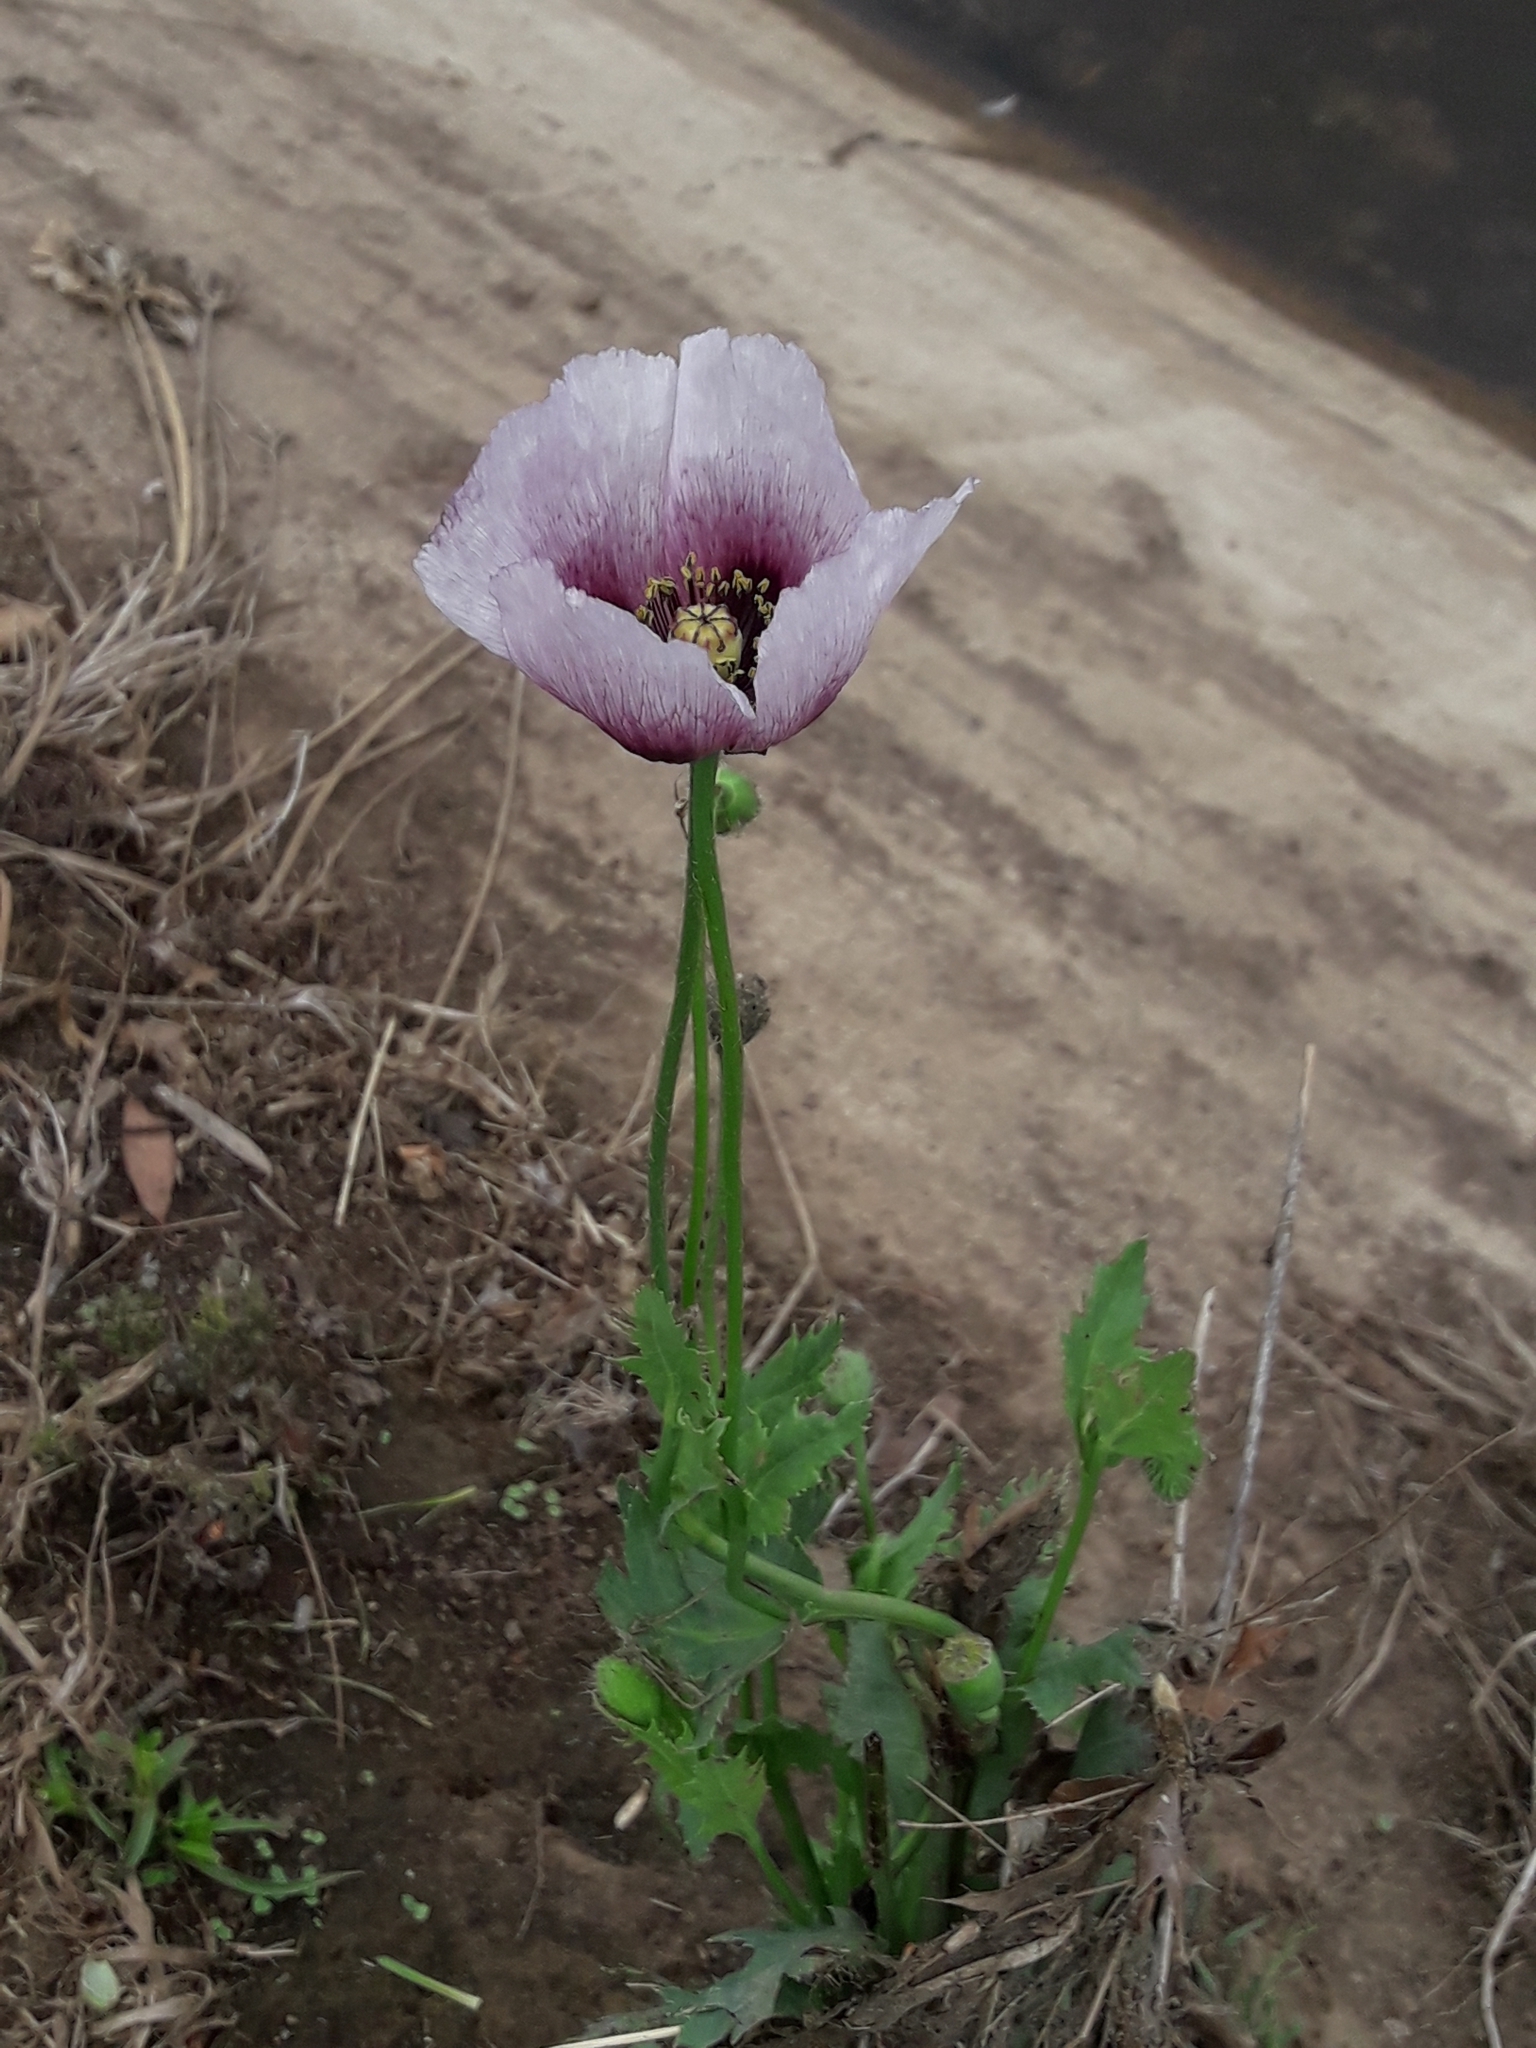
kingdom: Plantae
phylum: Tracheophyta
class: Magnoliopsida
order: Ranunculales
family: Papaveraceae
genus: Papaver
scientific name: Papaver somniferum
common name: Opium poppy
